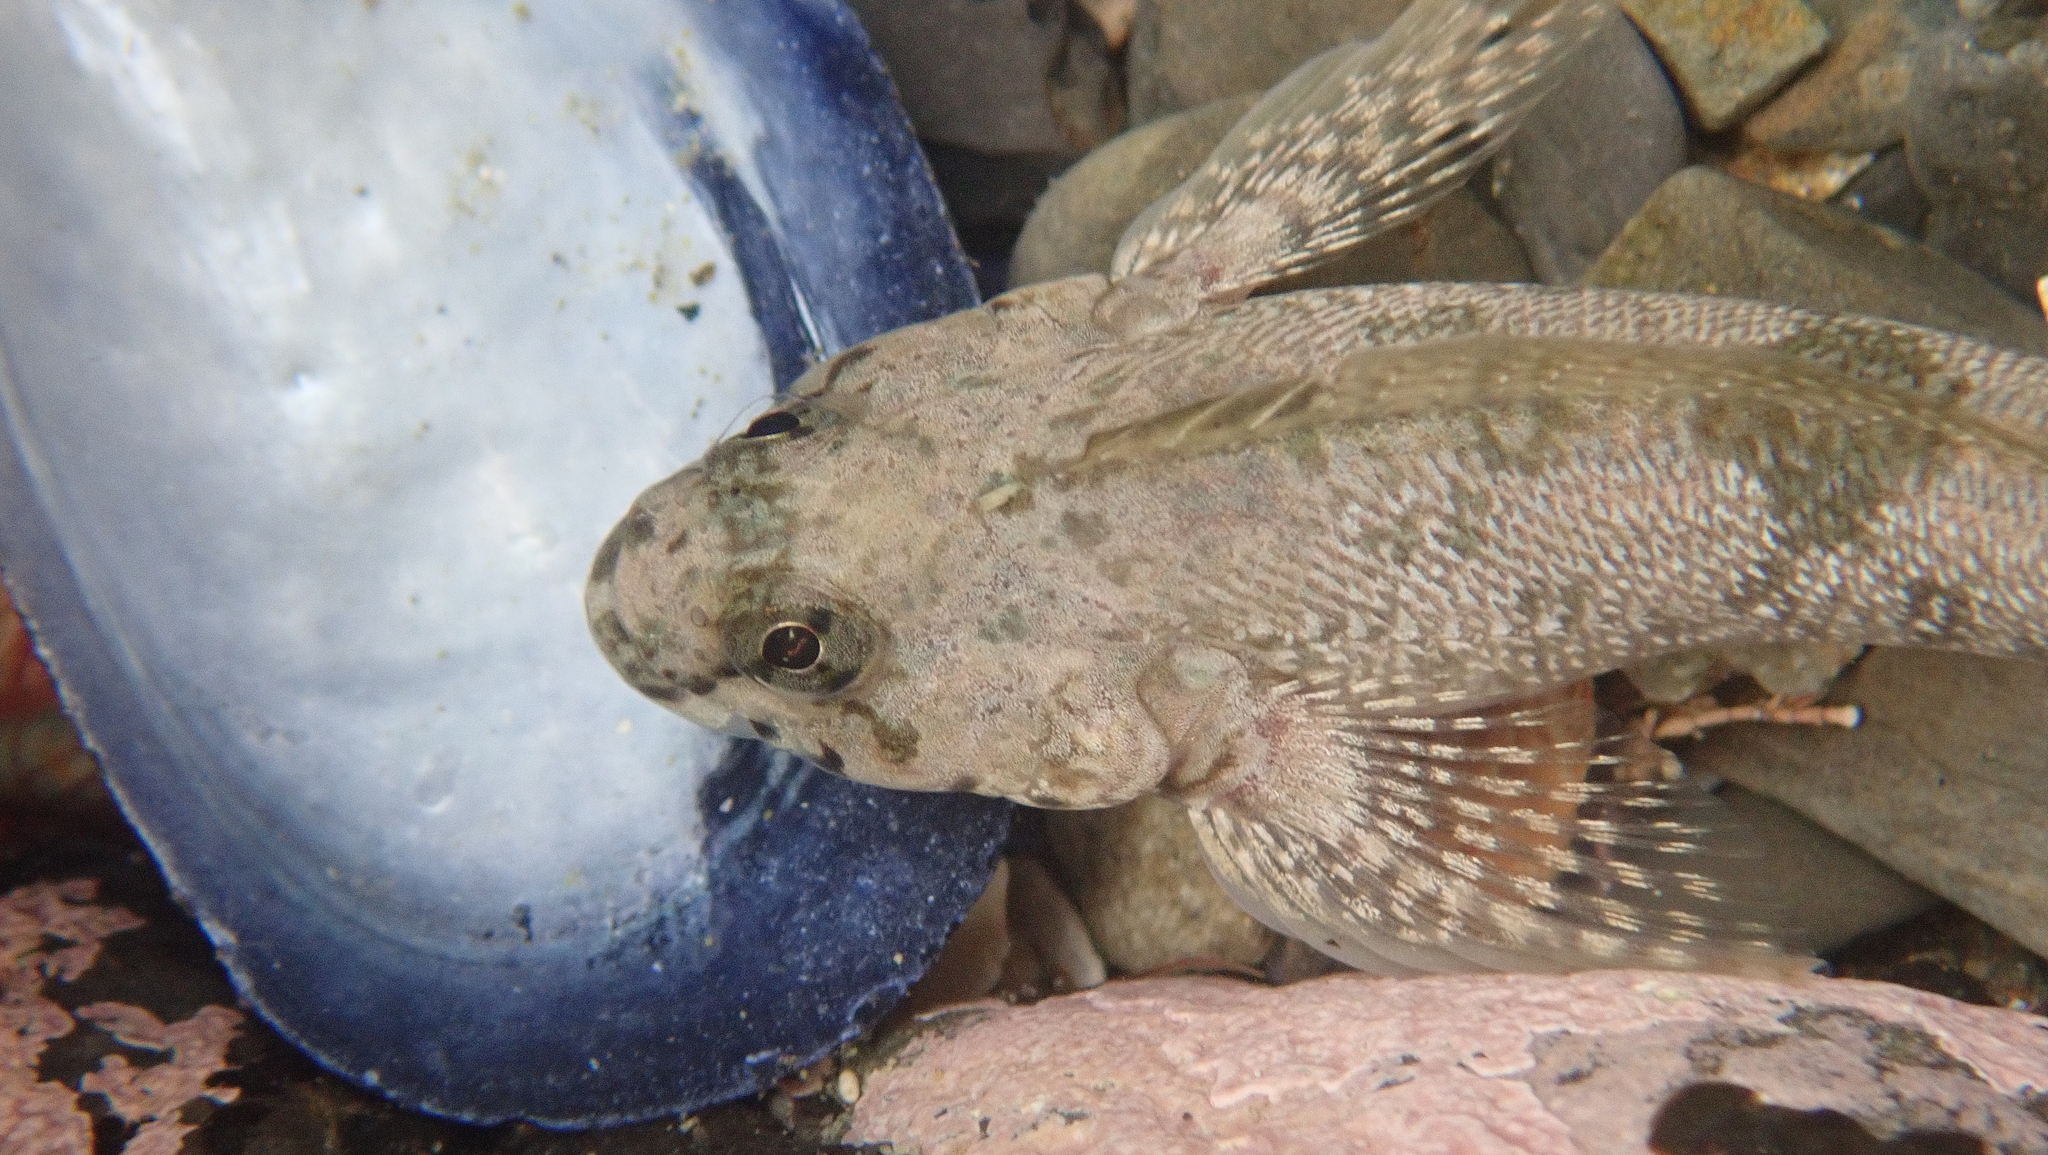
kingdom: Animalia
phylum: Chordata
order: Perciformes
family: Tripterygiidae
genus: Bellapiscis
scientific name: Bellapiscis medius
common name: Twister
